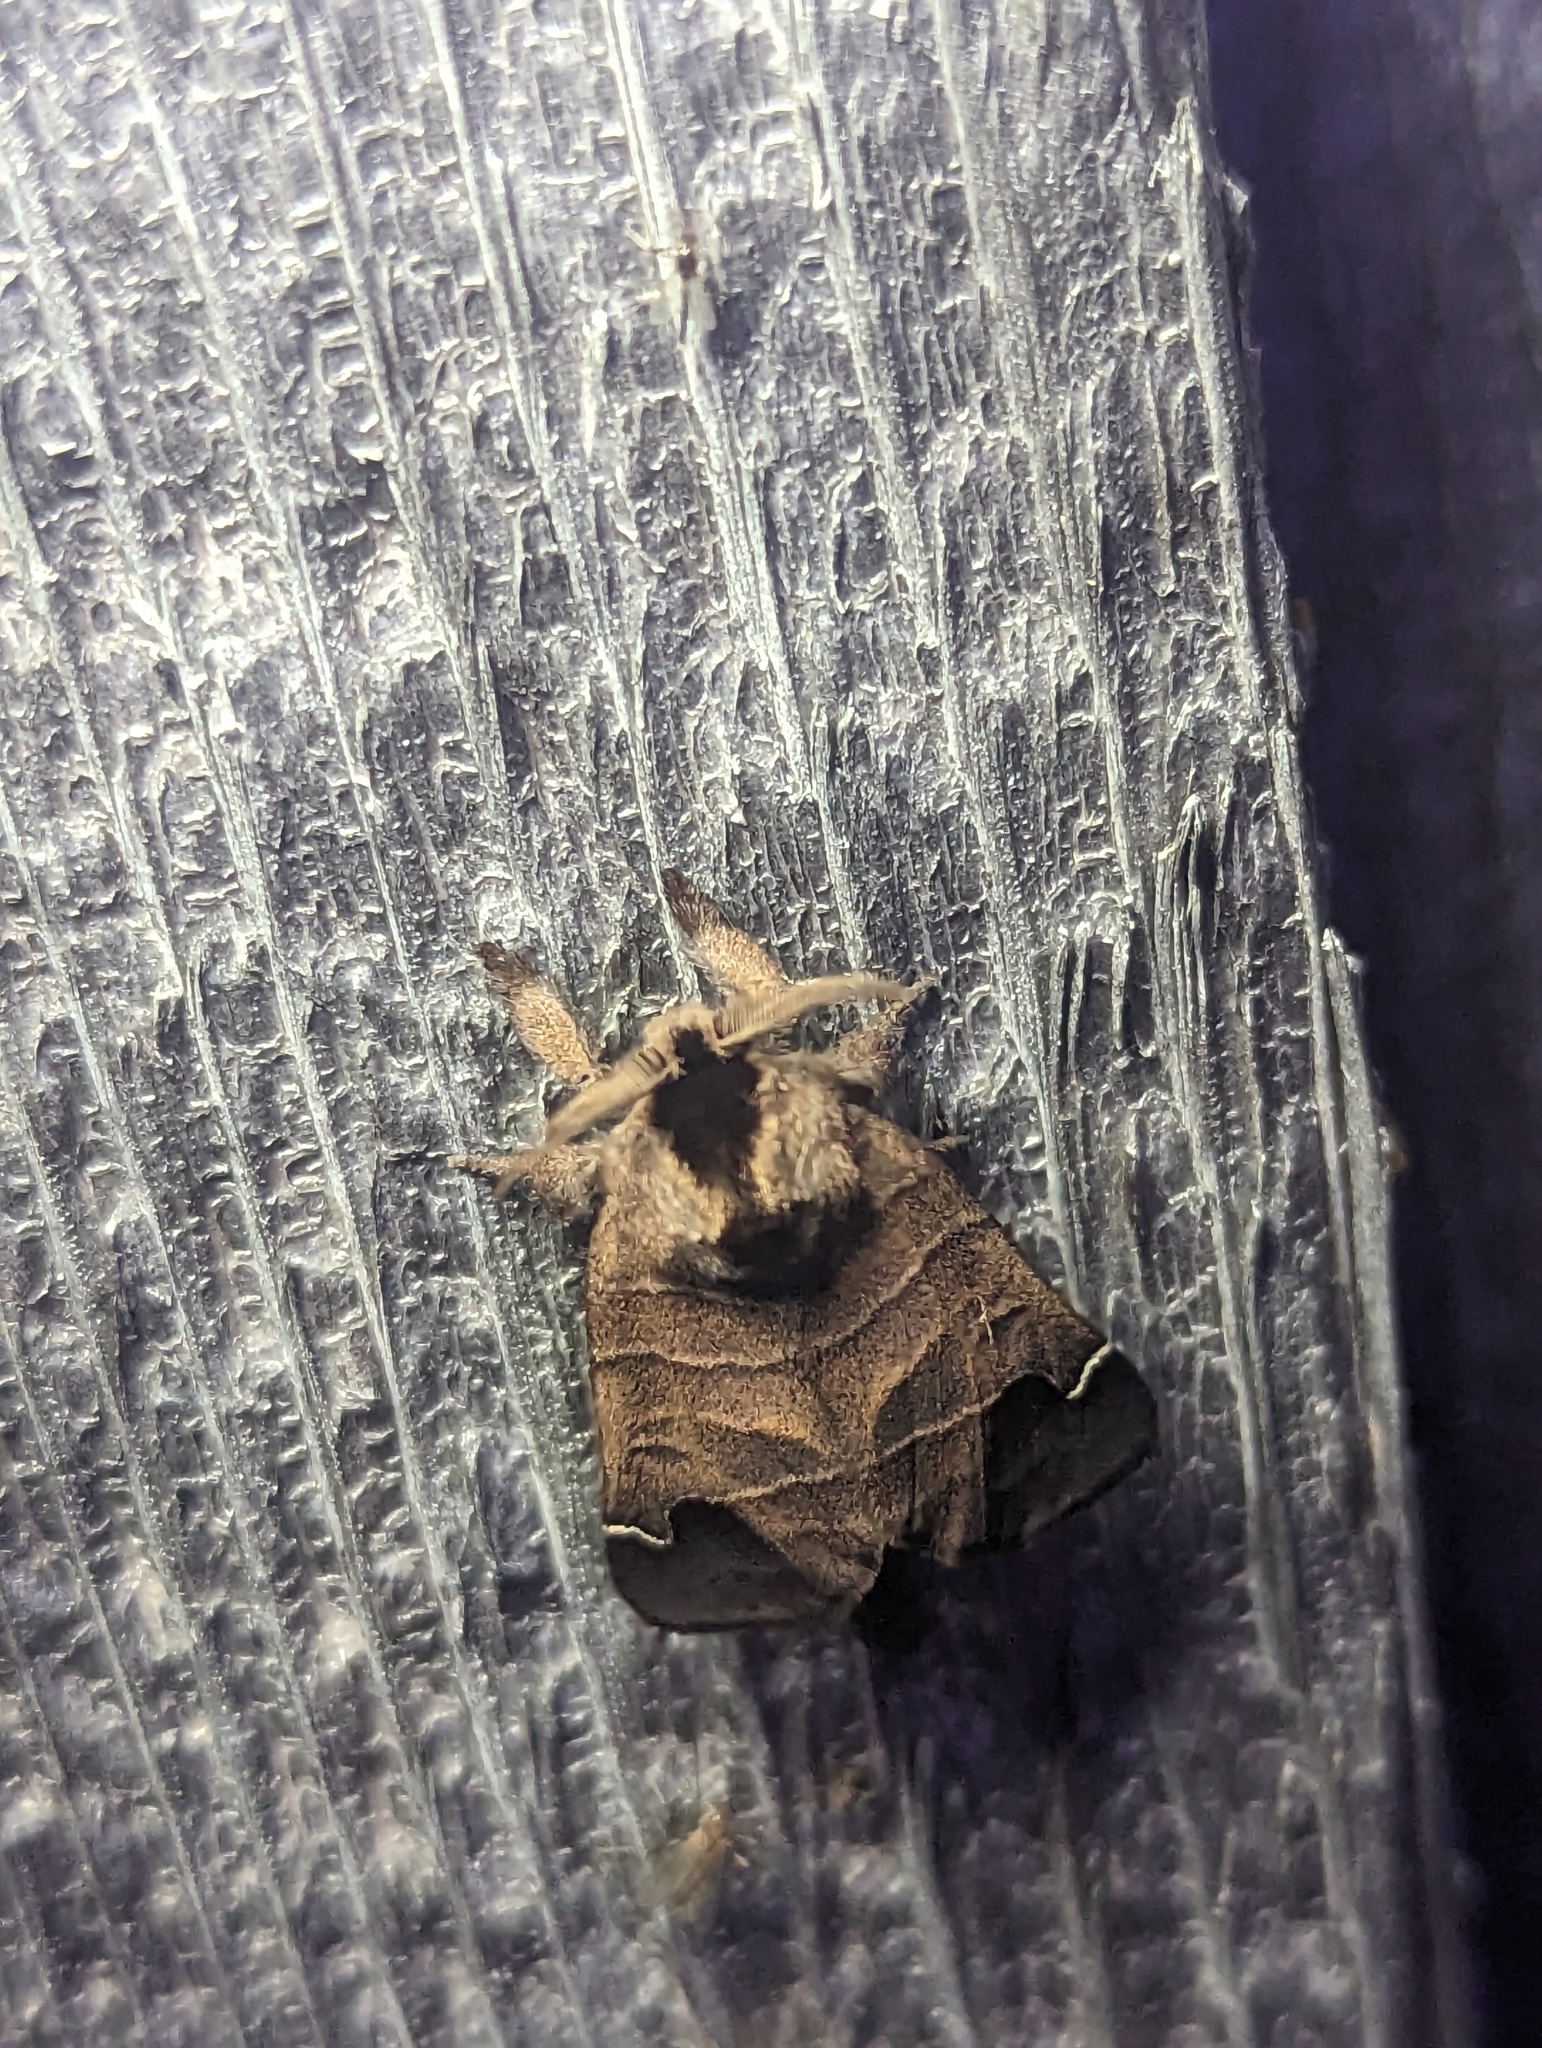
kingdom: Animalia
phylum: Arthropoda
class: Insecta
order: Lepidoptera
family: Notodontidae
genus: Clostera
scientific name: Clostera albosigma
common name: Sigmoid prominent
